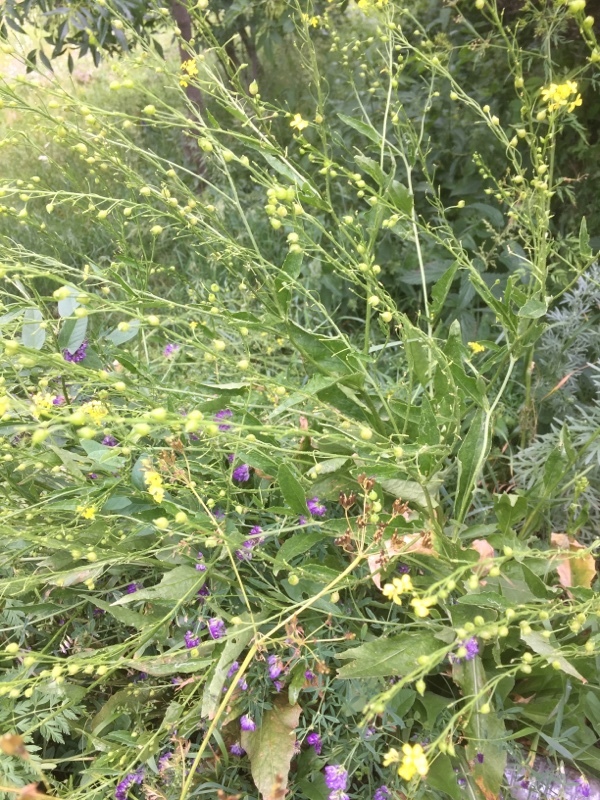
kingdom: Plantae
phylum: Tracheophyta
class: Magnoliopsida
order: Brassicales
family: Brassicaceae
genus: Bunias
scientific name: Bunias orientalis
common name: Warty-cabbage
